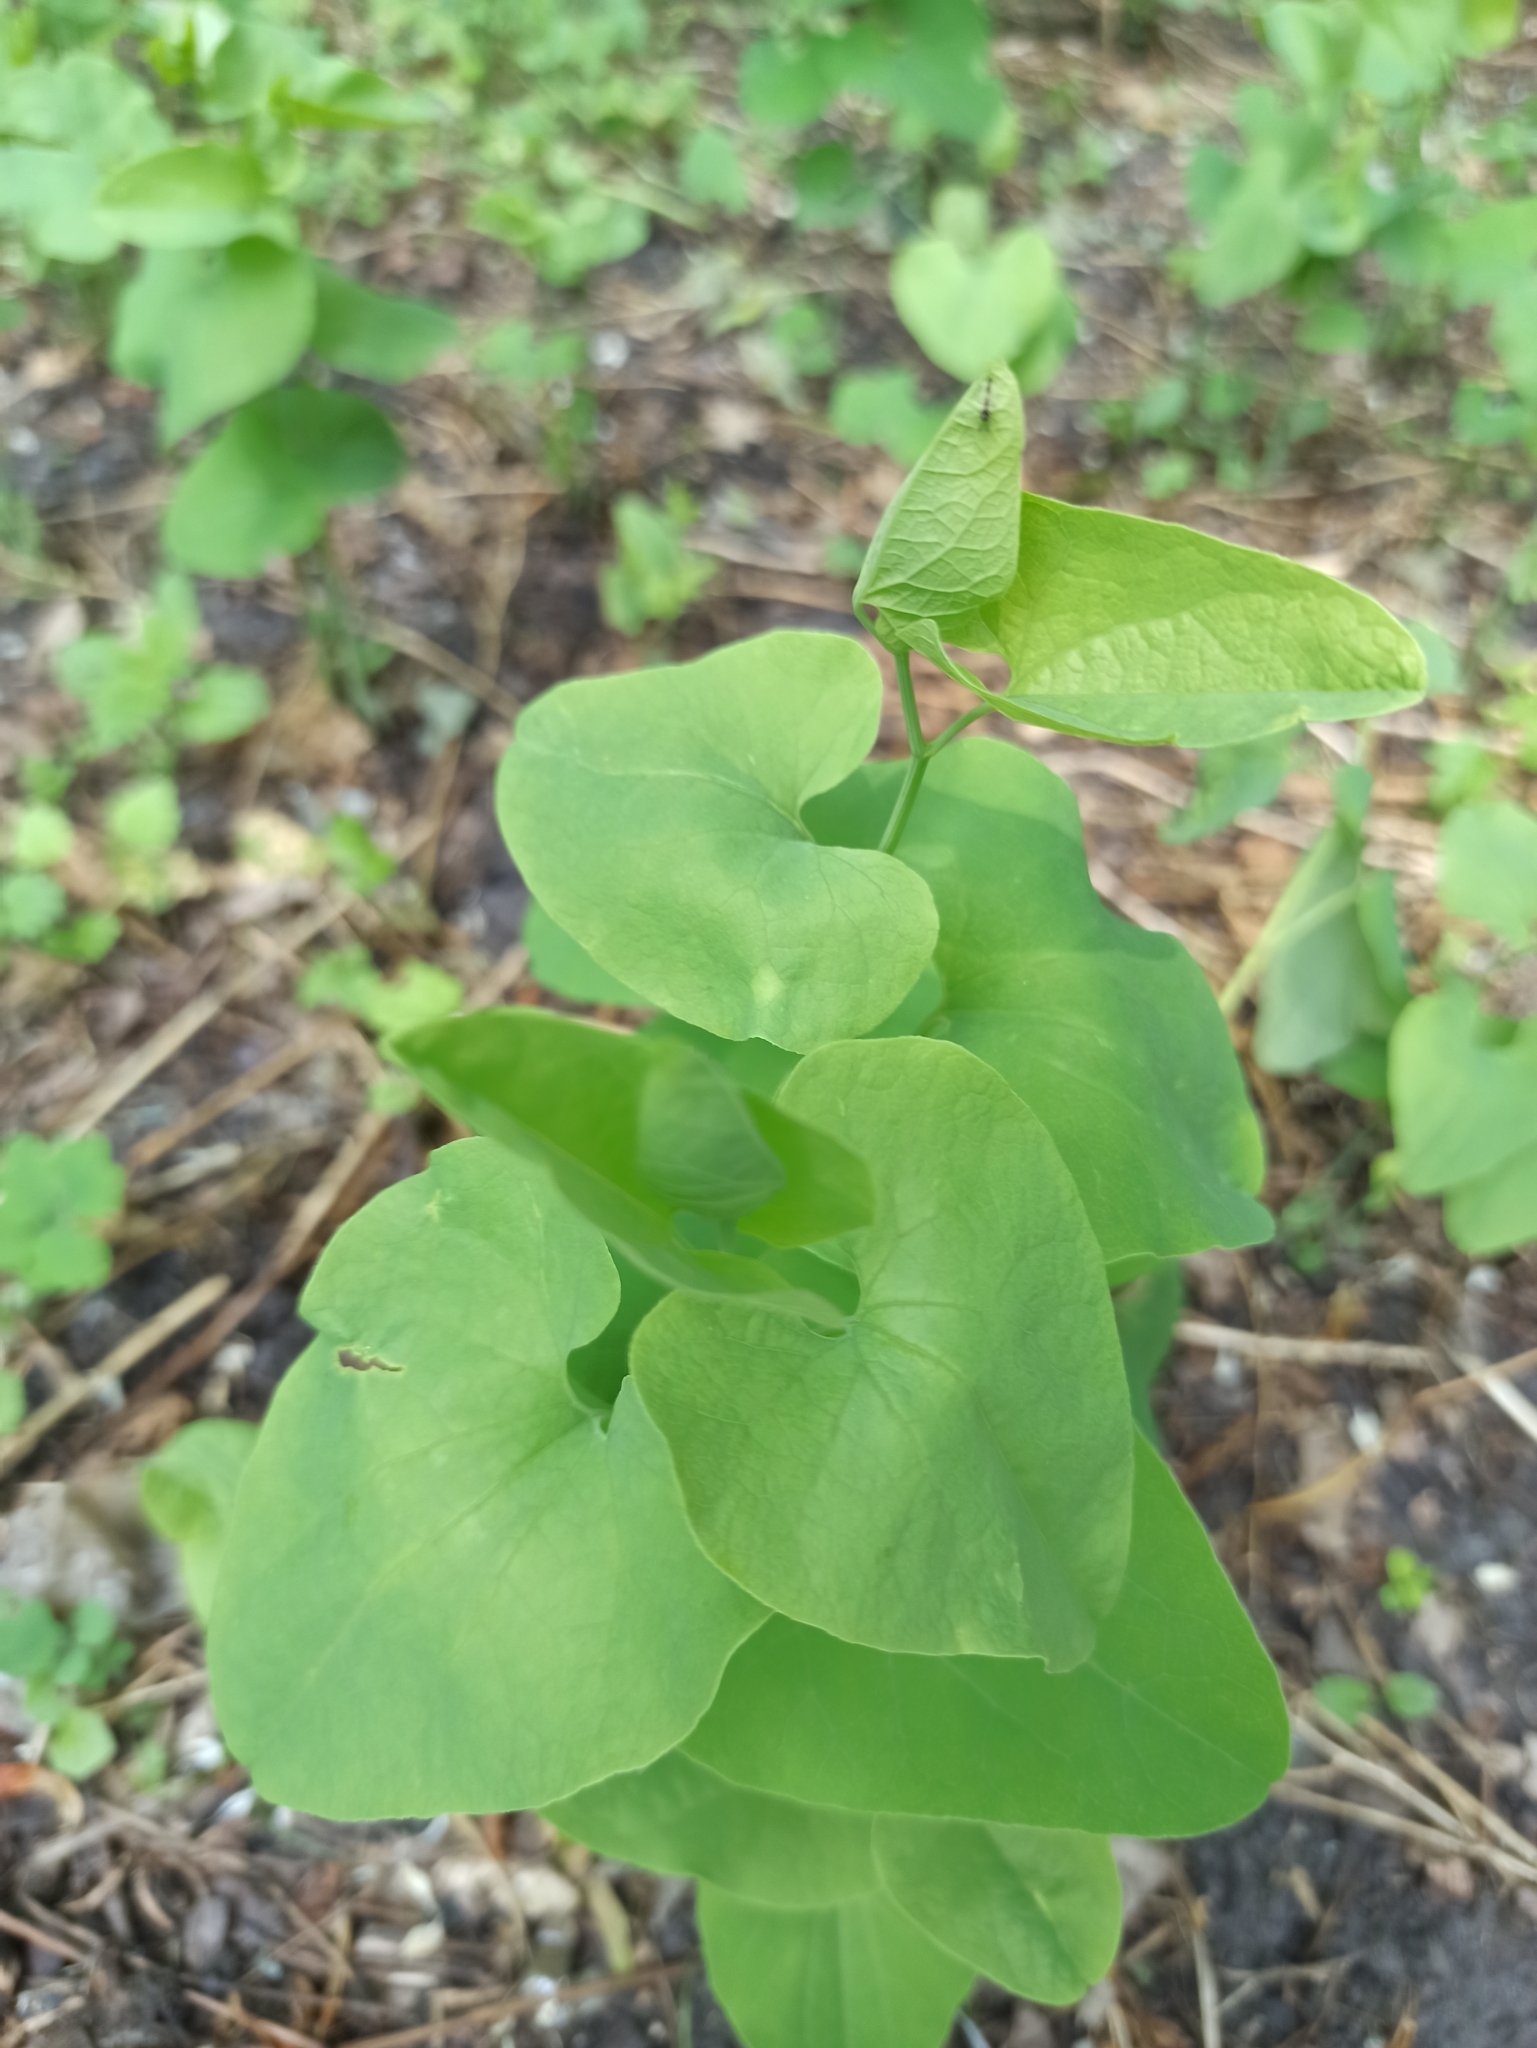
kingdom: Plantae
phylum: Tracheophyta
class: Magnoliopsida
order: Piperales
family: Aristolochiaceae
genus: Aristolochia
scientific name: Aristolochia clematitis
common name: Birthwort
